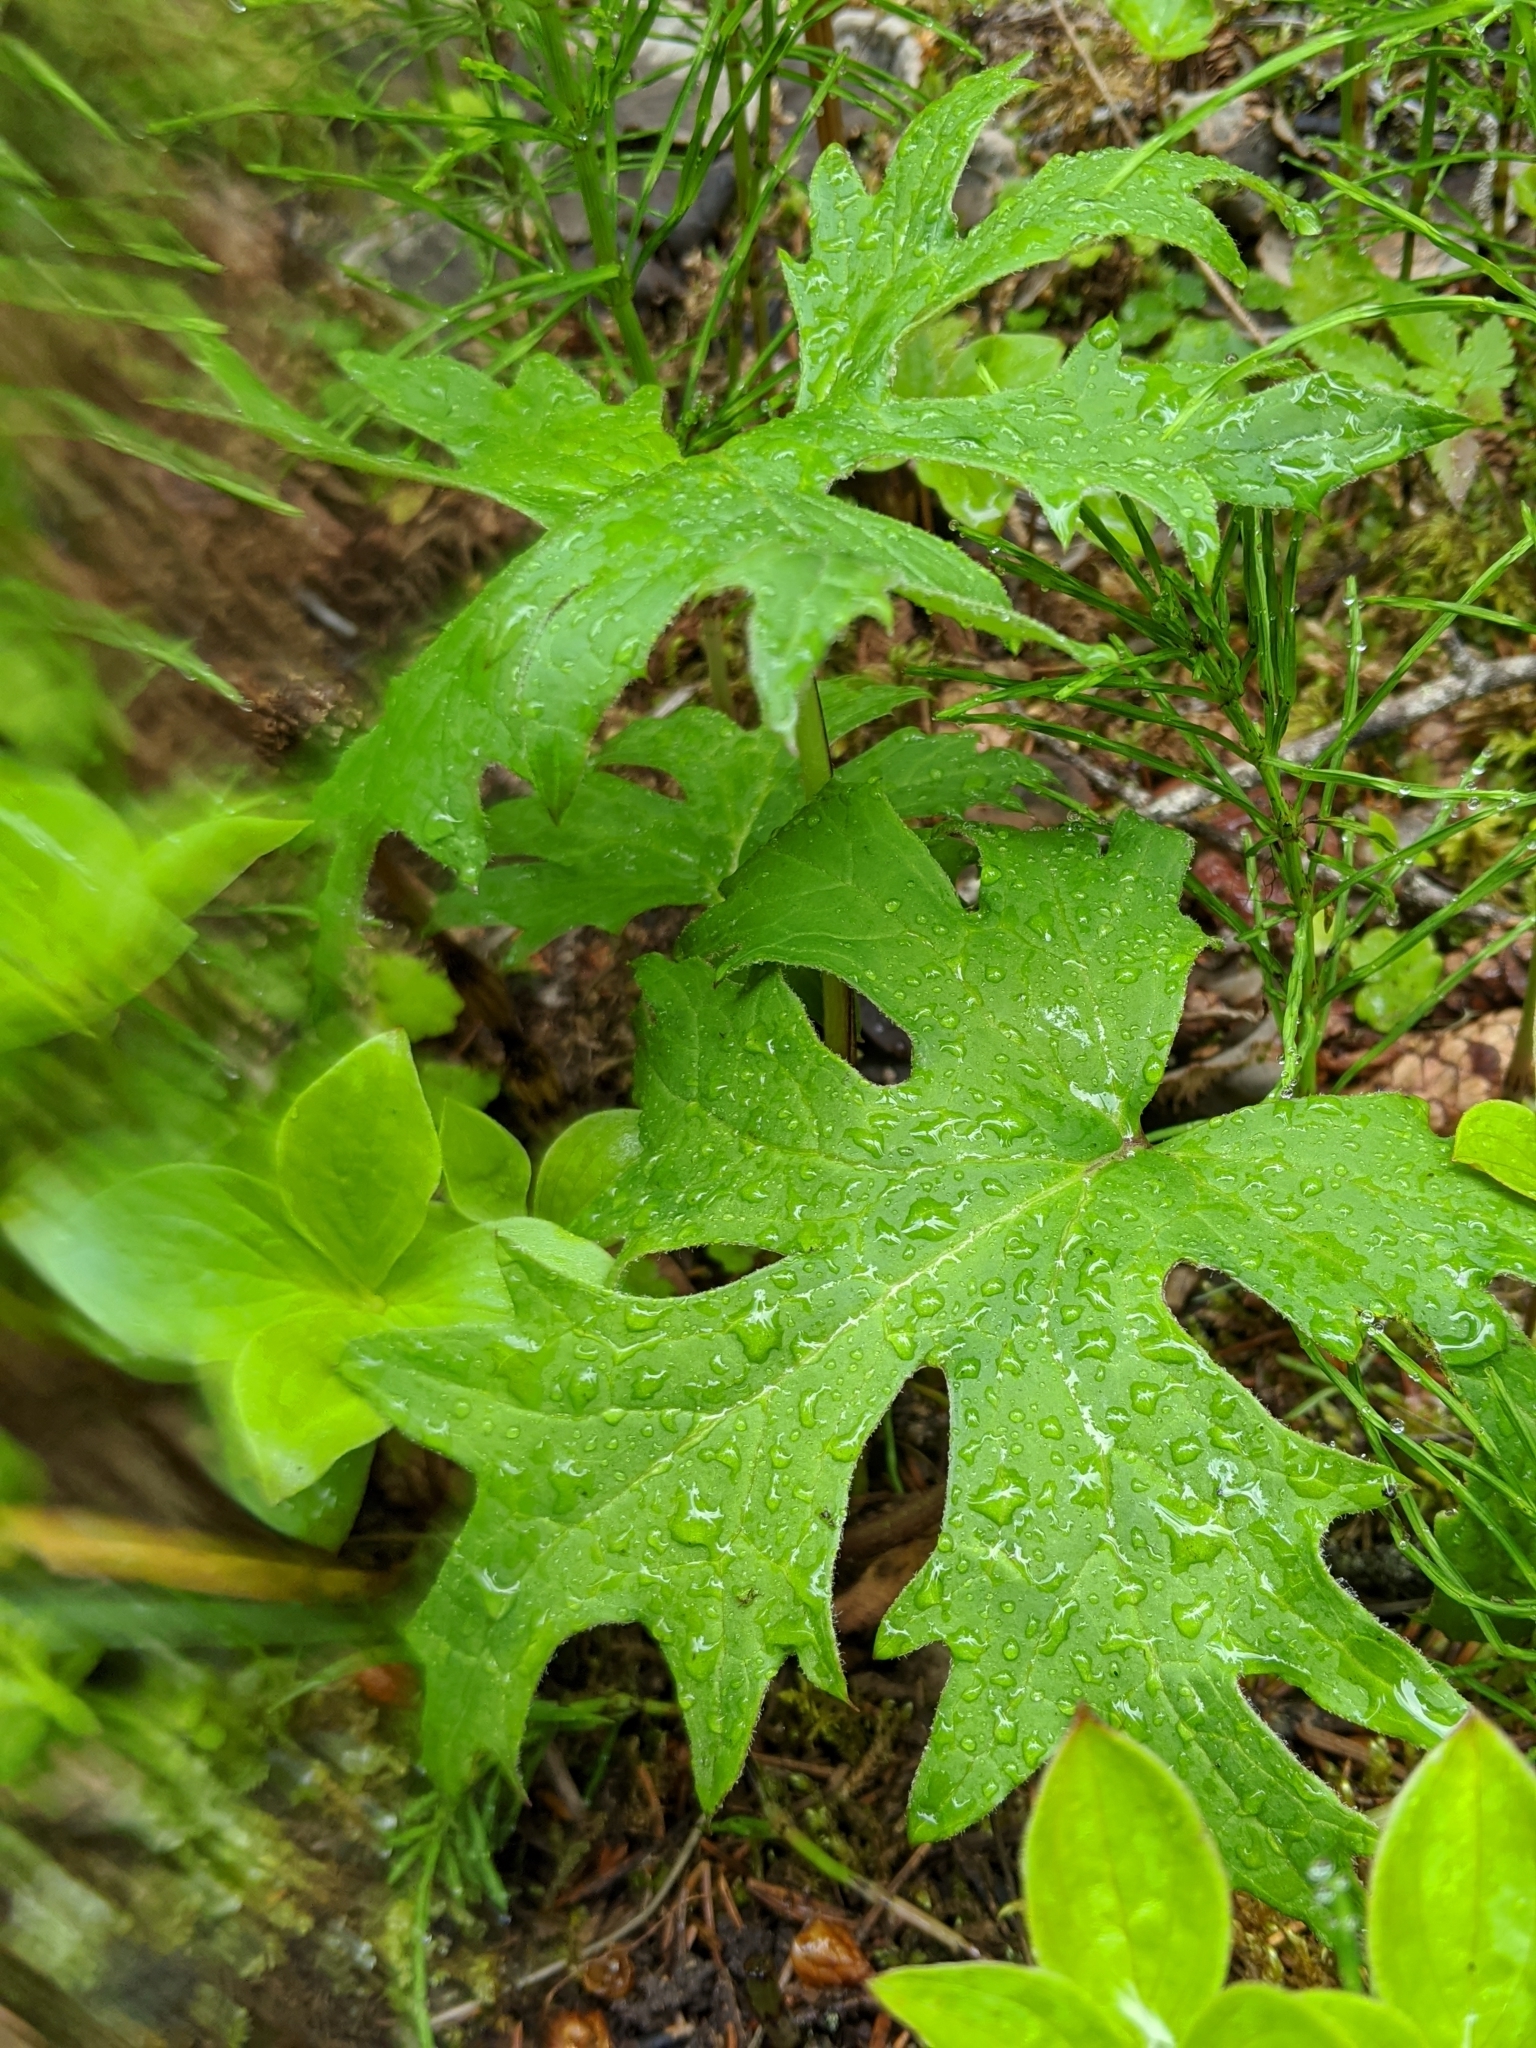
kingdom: Plantae
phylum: Tracheophyta
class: Magnoliopsida
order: Asterales
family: Asteraceae
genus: Petasites
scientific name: Petasites frigidus
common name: Arctic butterbur
